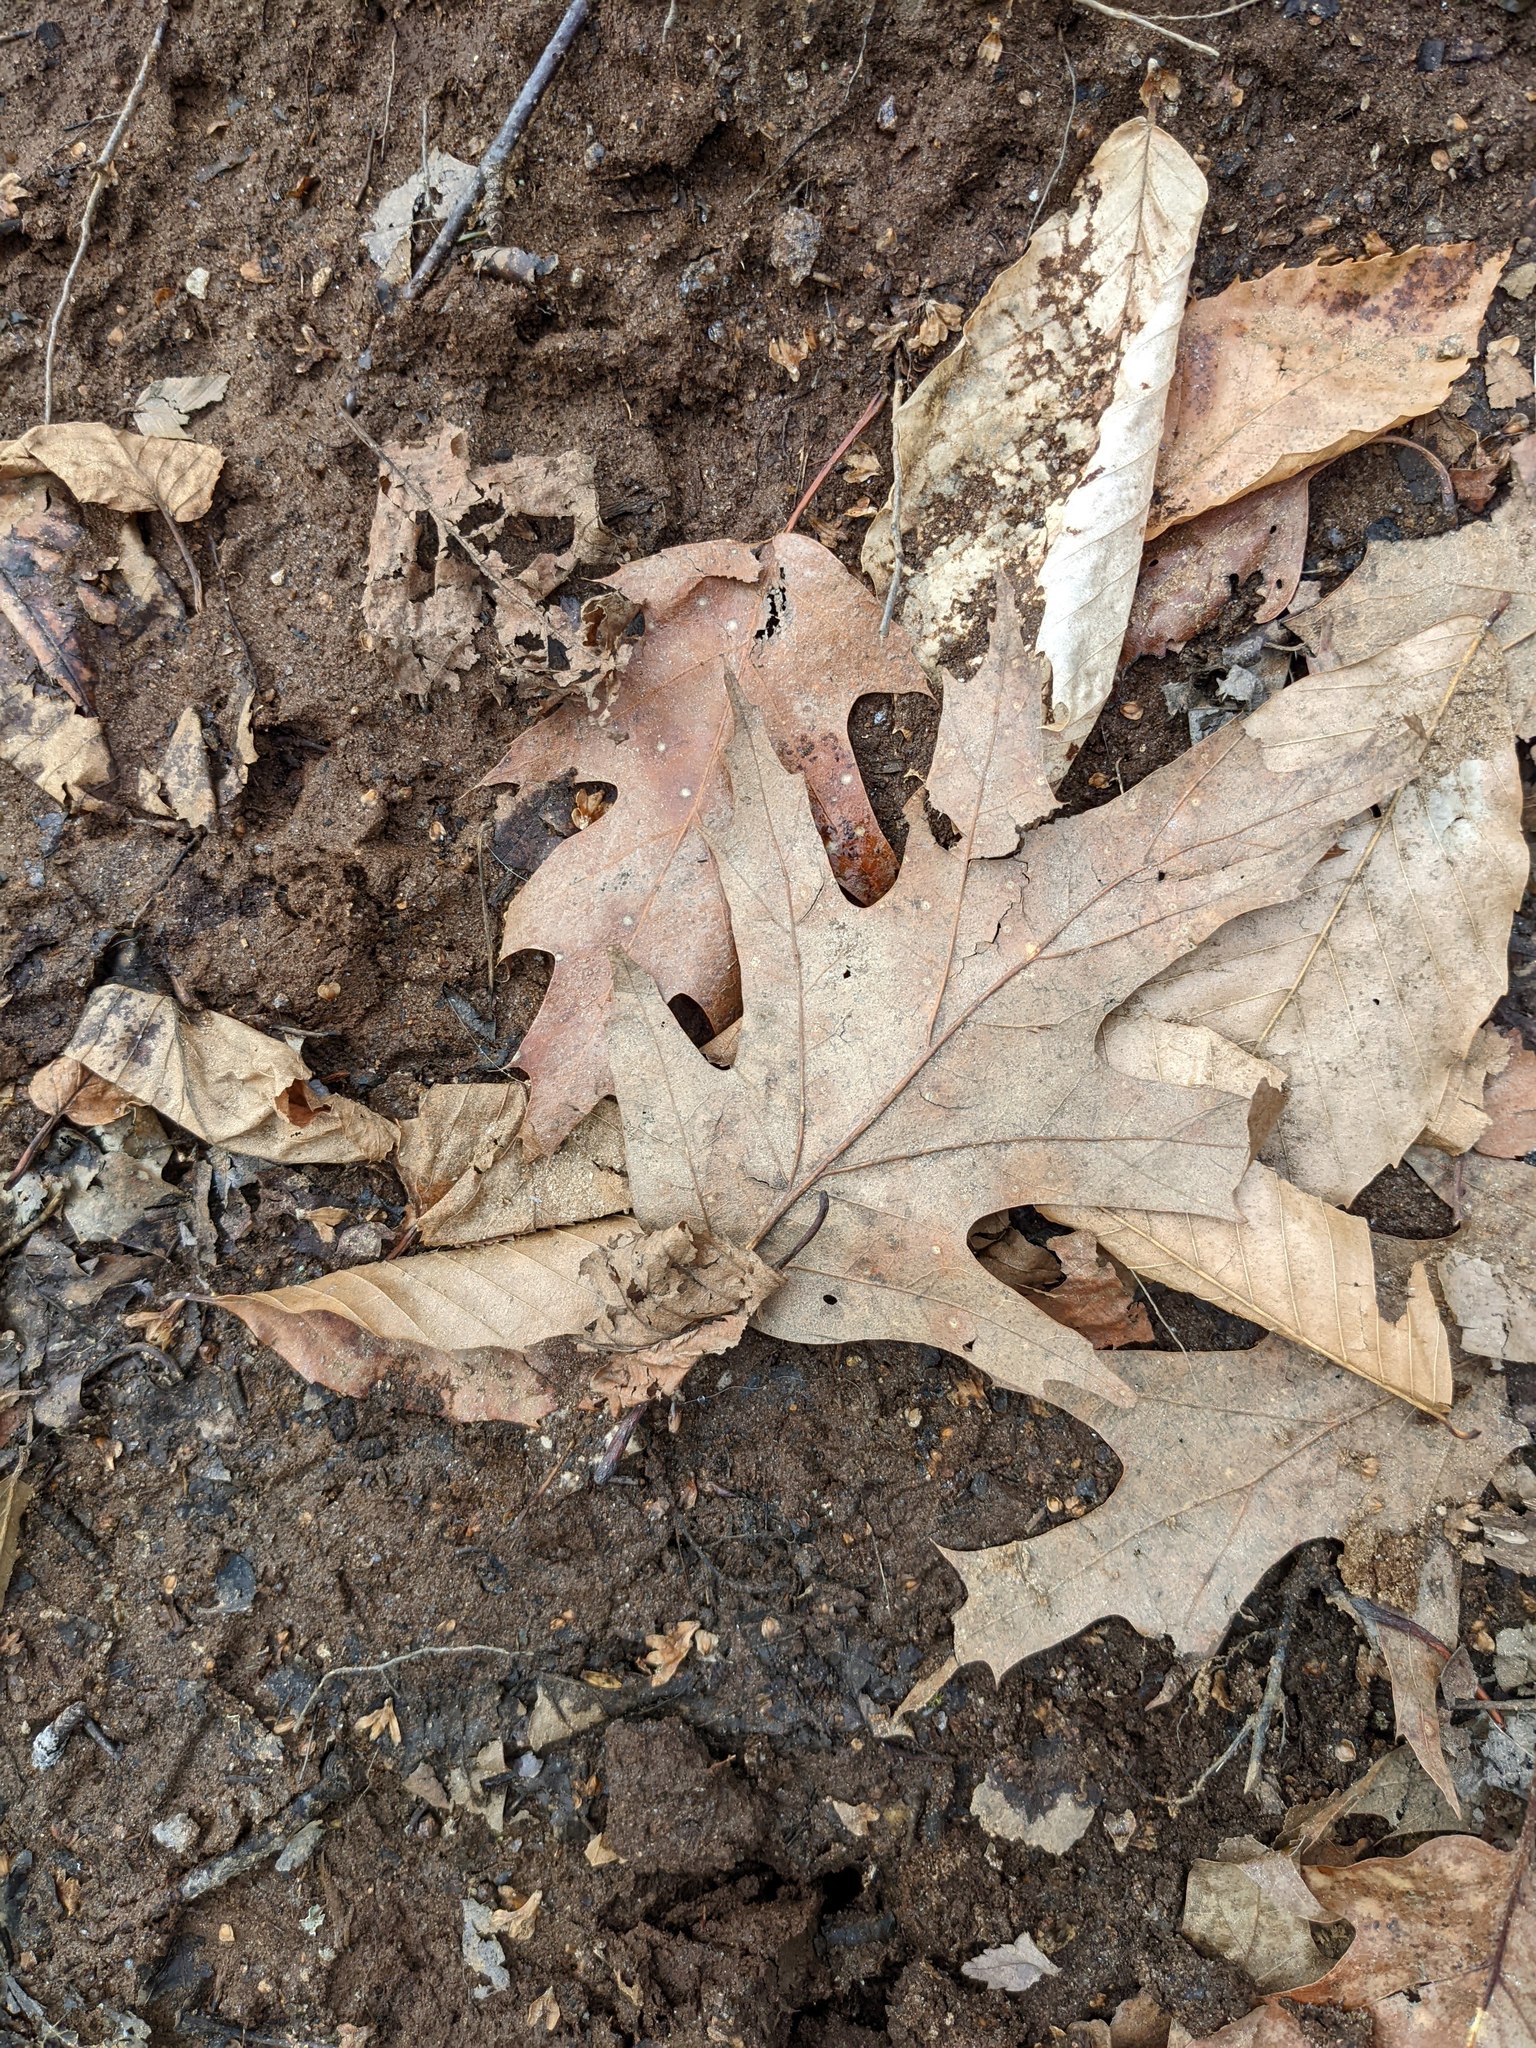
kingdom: Plantae
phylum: Tracheophyta
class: Magnoliopsida
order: Fagales
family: Fagaceae
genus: Quercus
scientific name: Quercus rubra
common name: Red oak
